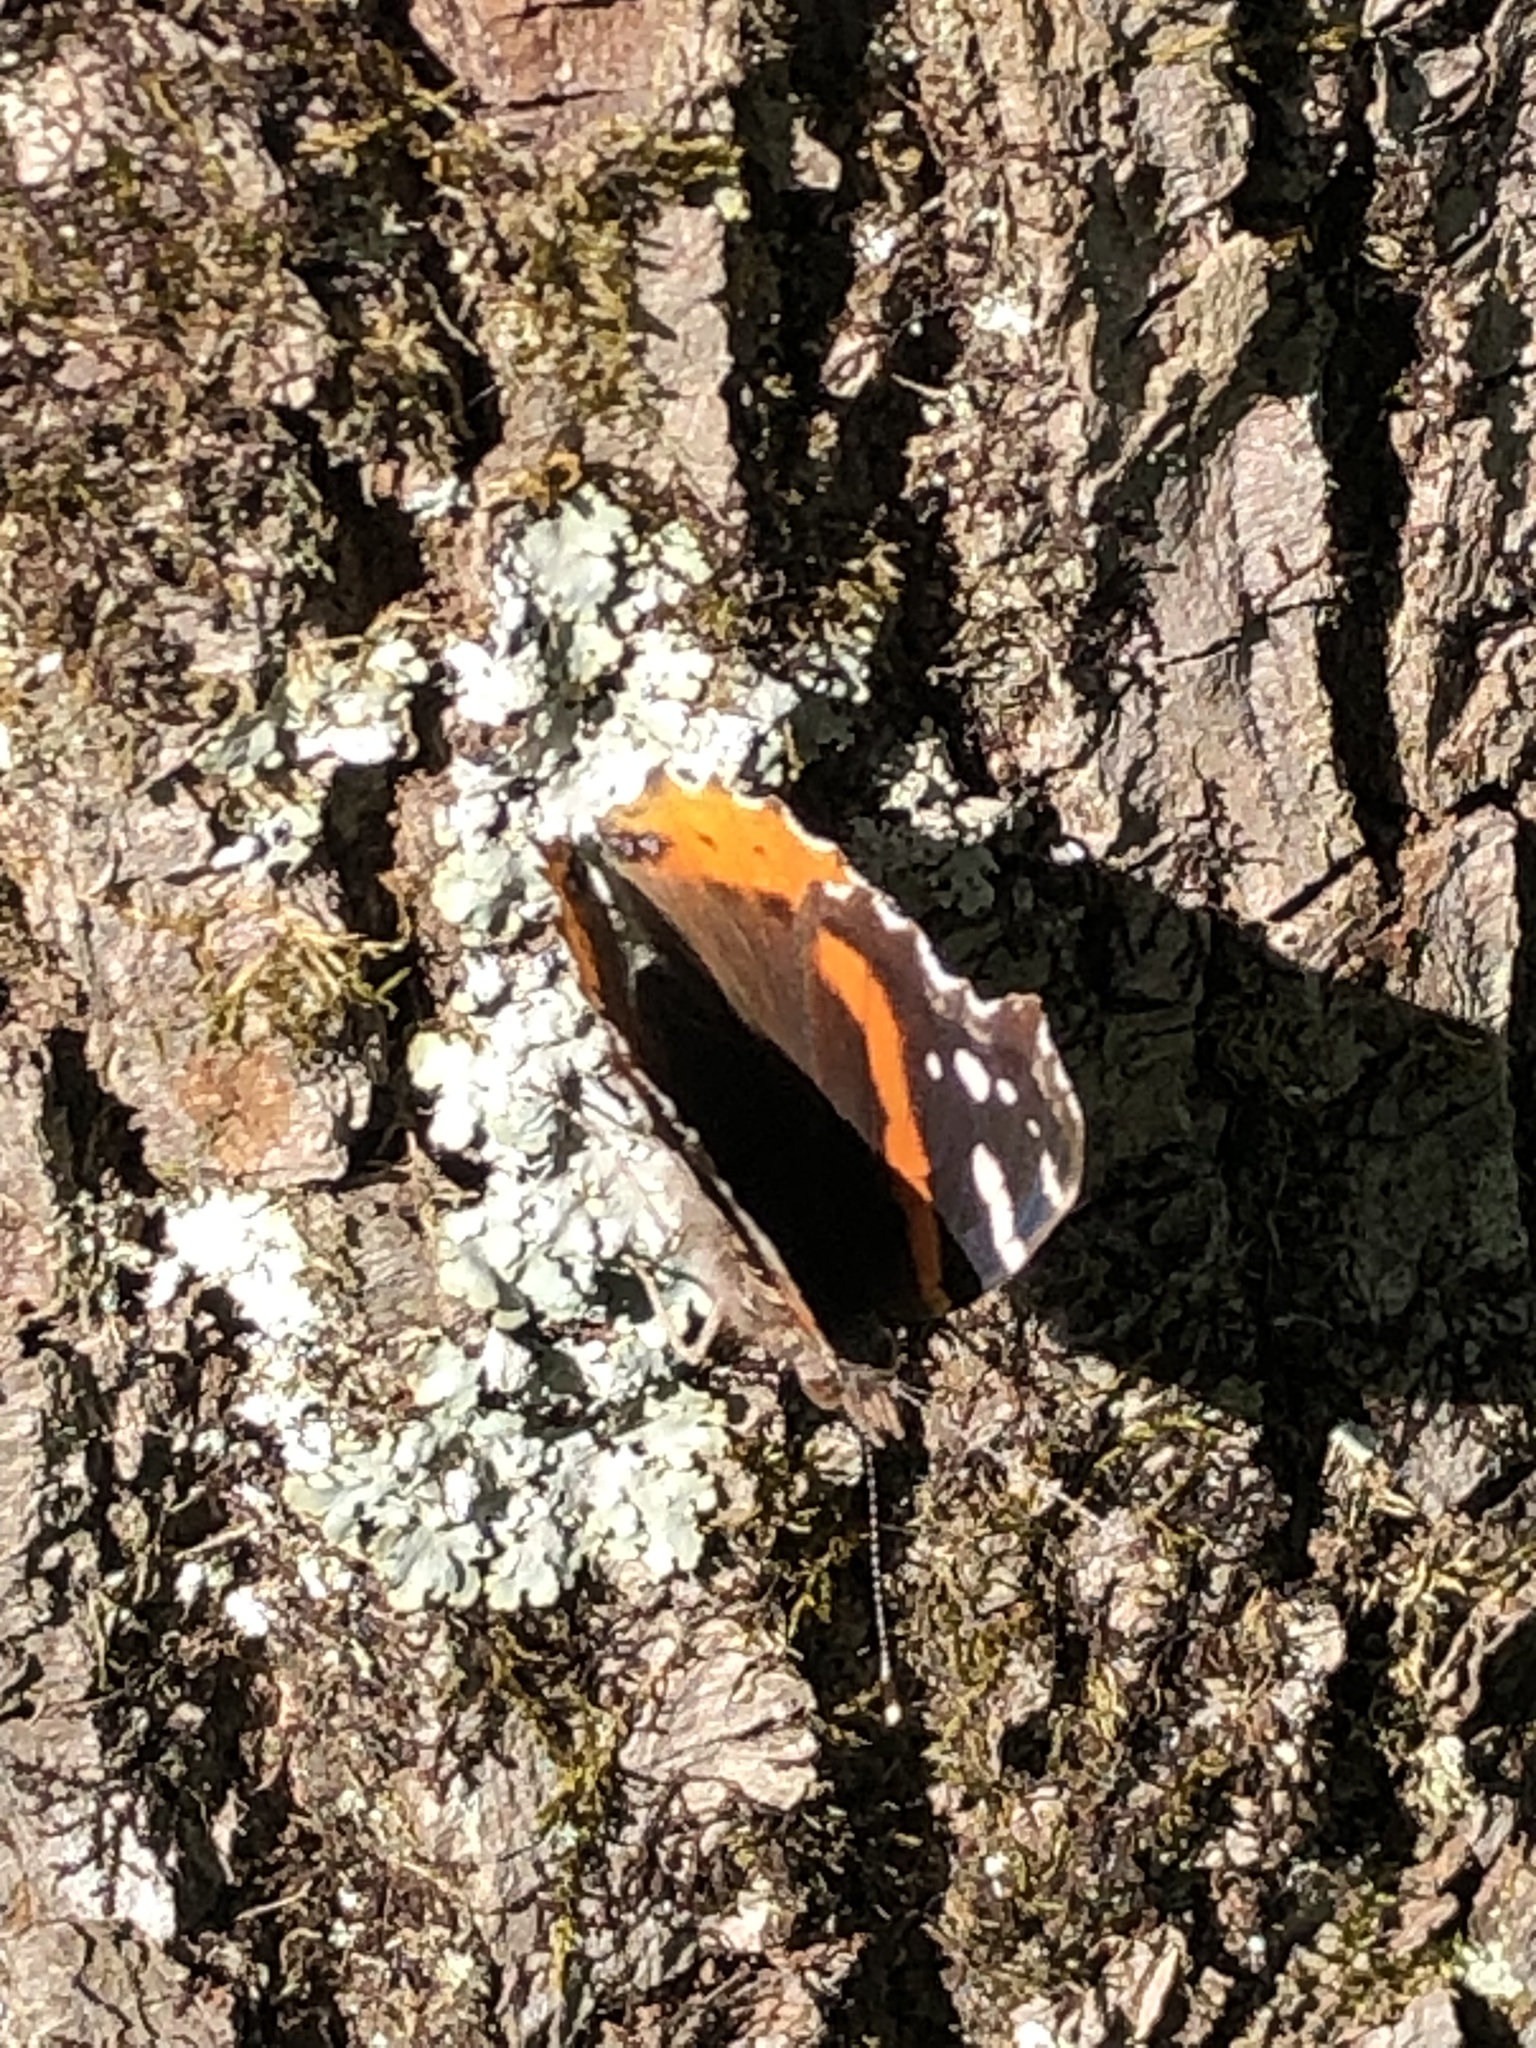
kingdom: Animalia
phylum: Arthropoda
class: Insecta
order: Lepidoptera
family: Nymphalidae
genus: Vanessa
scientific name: Vanessa atalanta
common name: Red admiral
